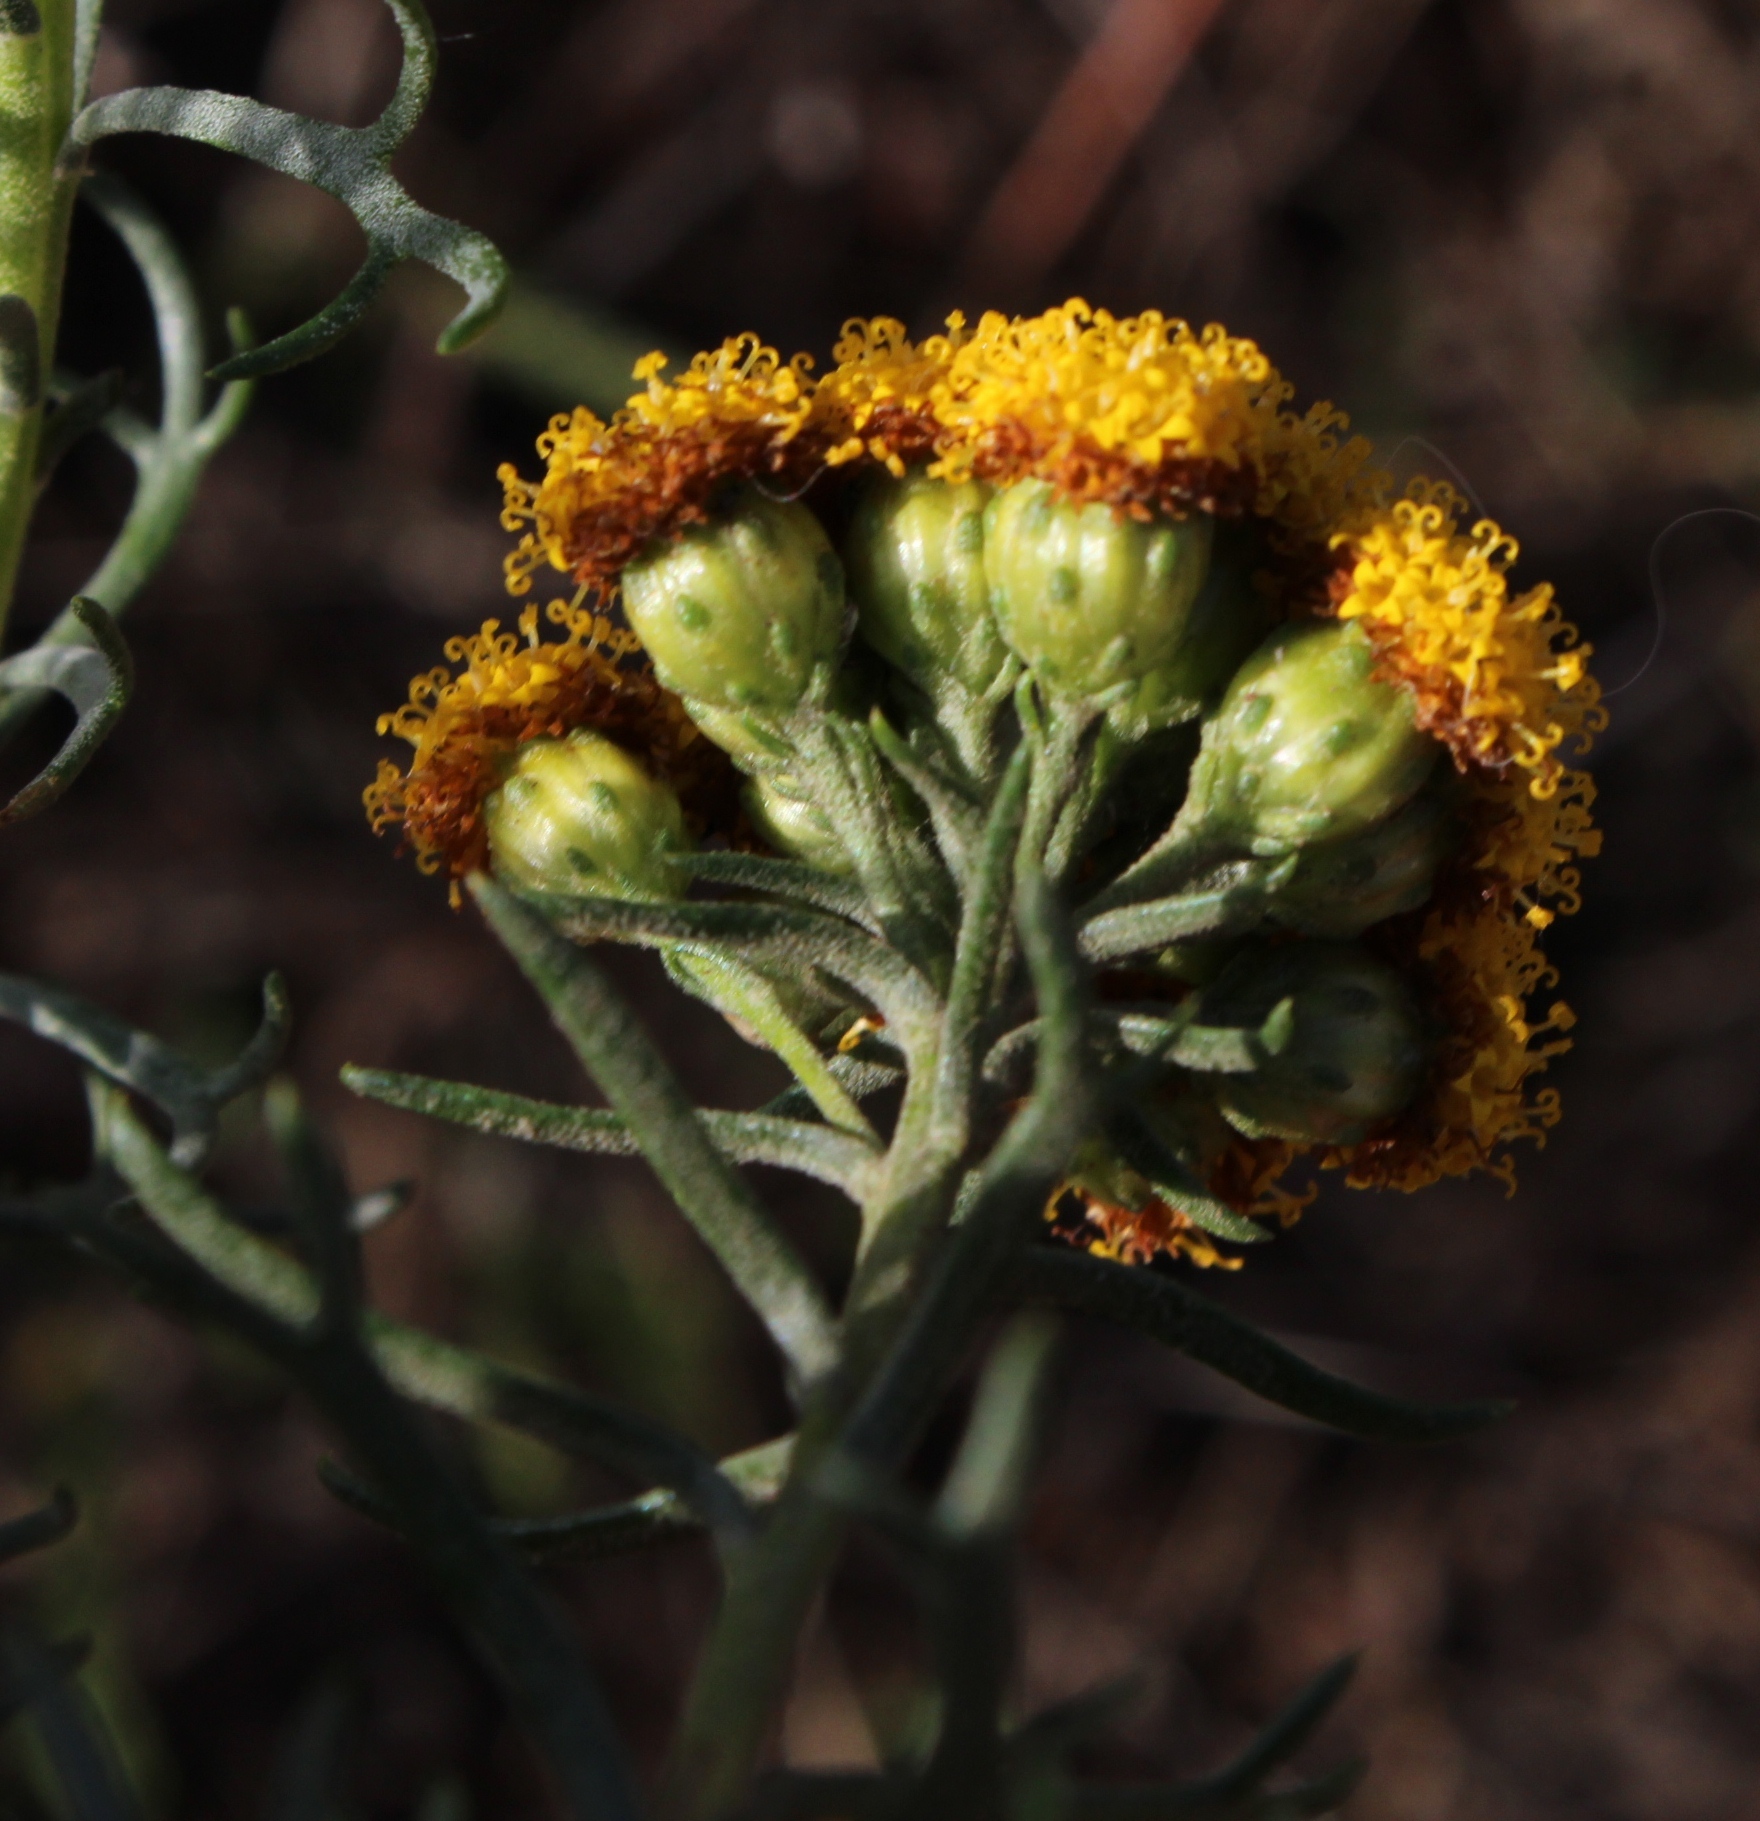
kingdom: Plantae
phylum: Tracheophyta
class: Magnoliopsida
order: Asterales
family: Asteraceae
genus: Athanasia
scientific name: Athanasia trifurcata
